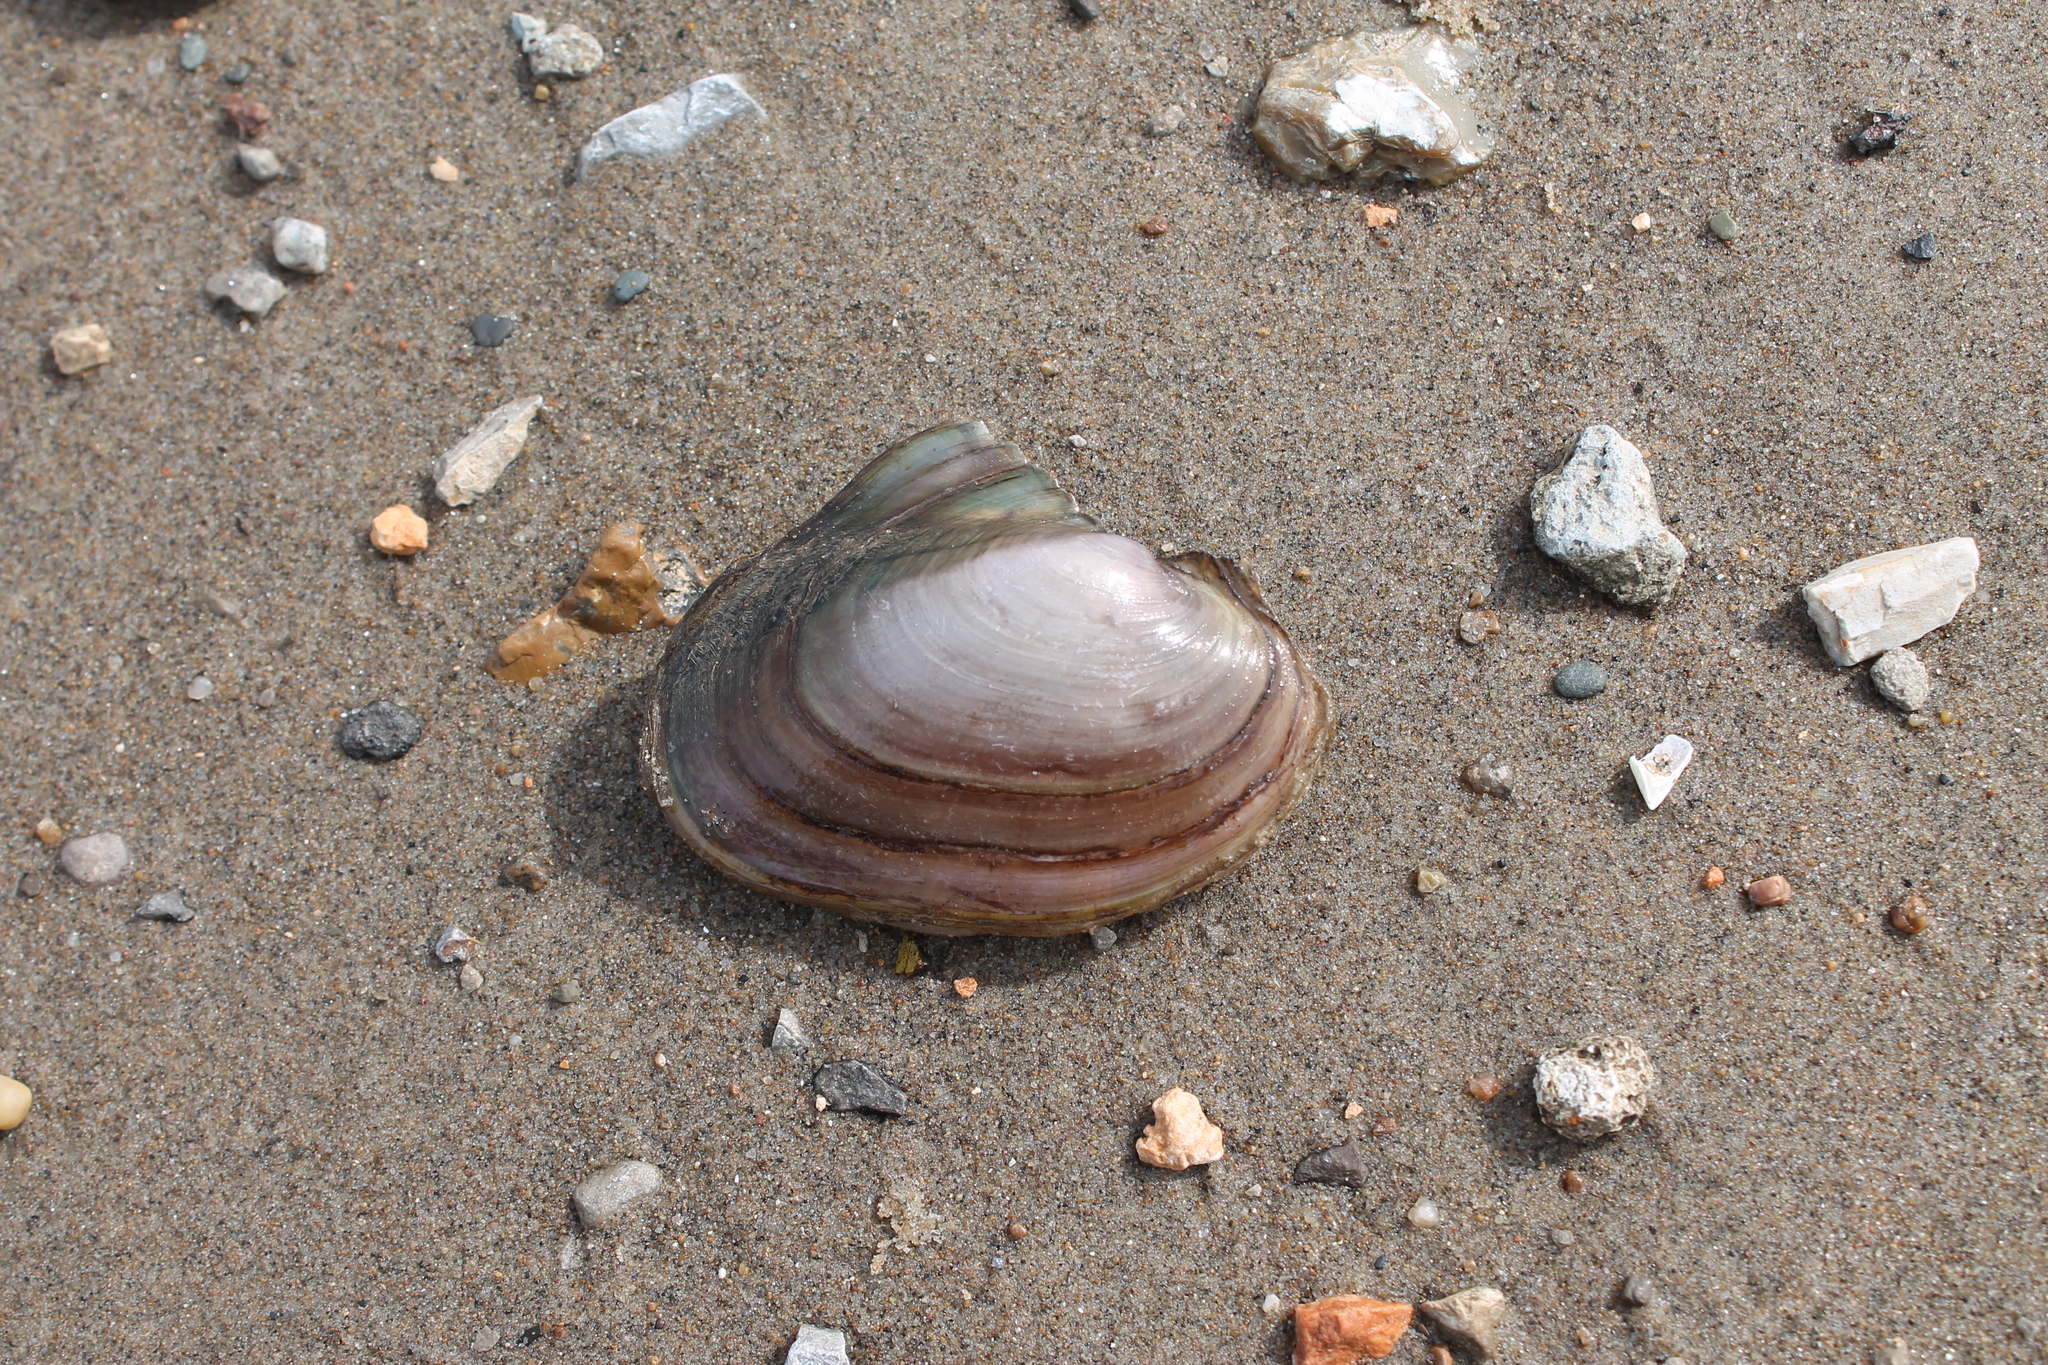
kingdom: Animalia
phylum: Mollusca
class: Bivalvia
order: Unionida
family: Unionidae
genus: Potamilus
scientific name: Potamilus ohiensis
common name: Pink papershell
